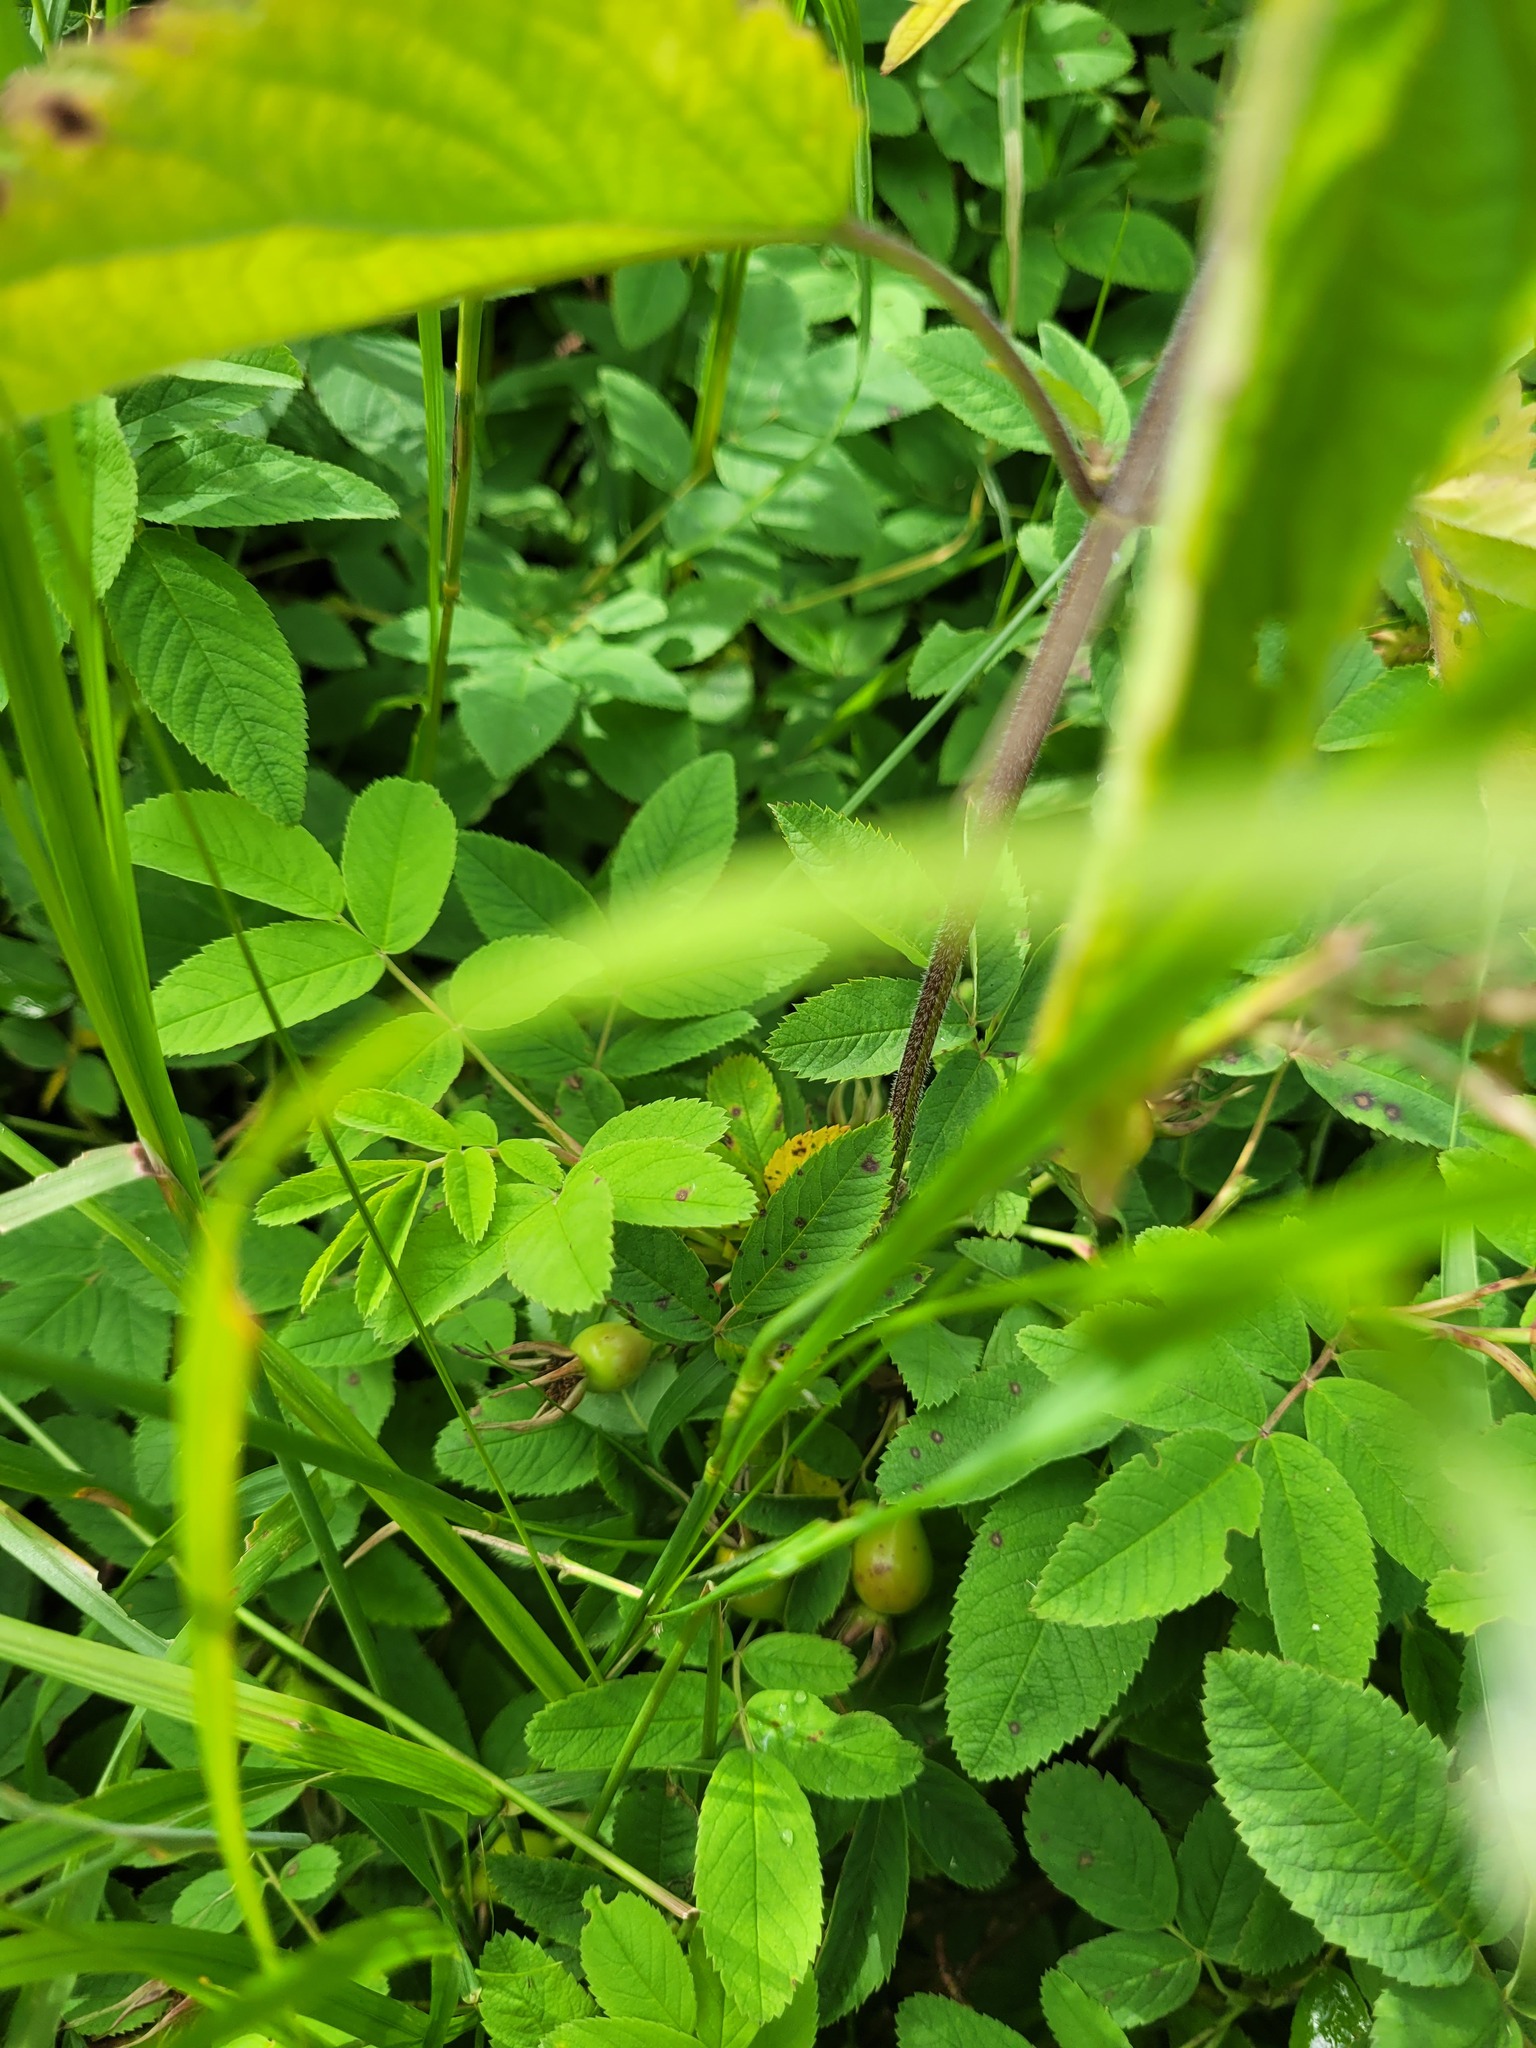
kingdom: Plantae
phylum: Tracheophyta
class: Magnoliopsida
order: Rosales
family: Rosaceae
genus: Rosa
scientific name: Rosa majalis
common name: Cinnamon rose
